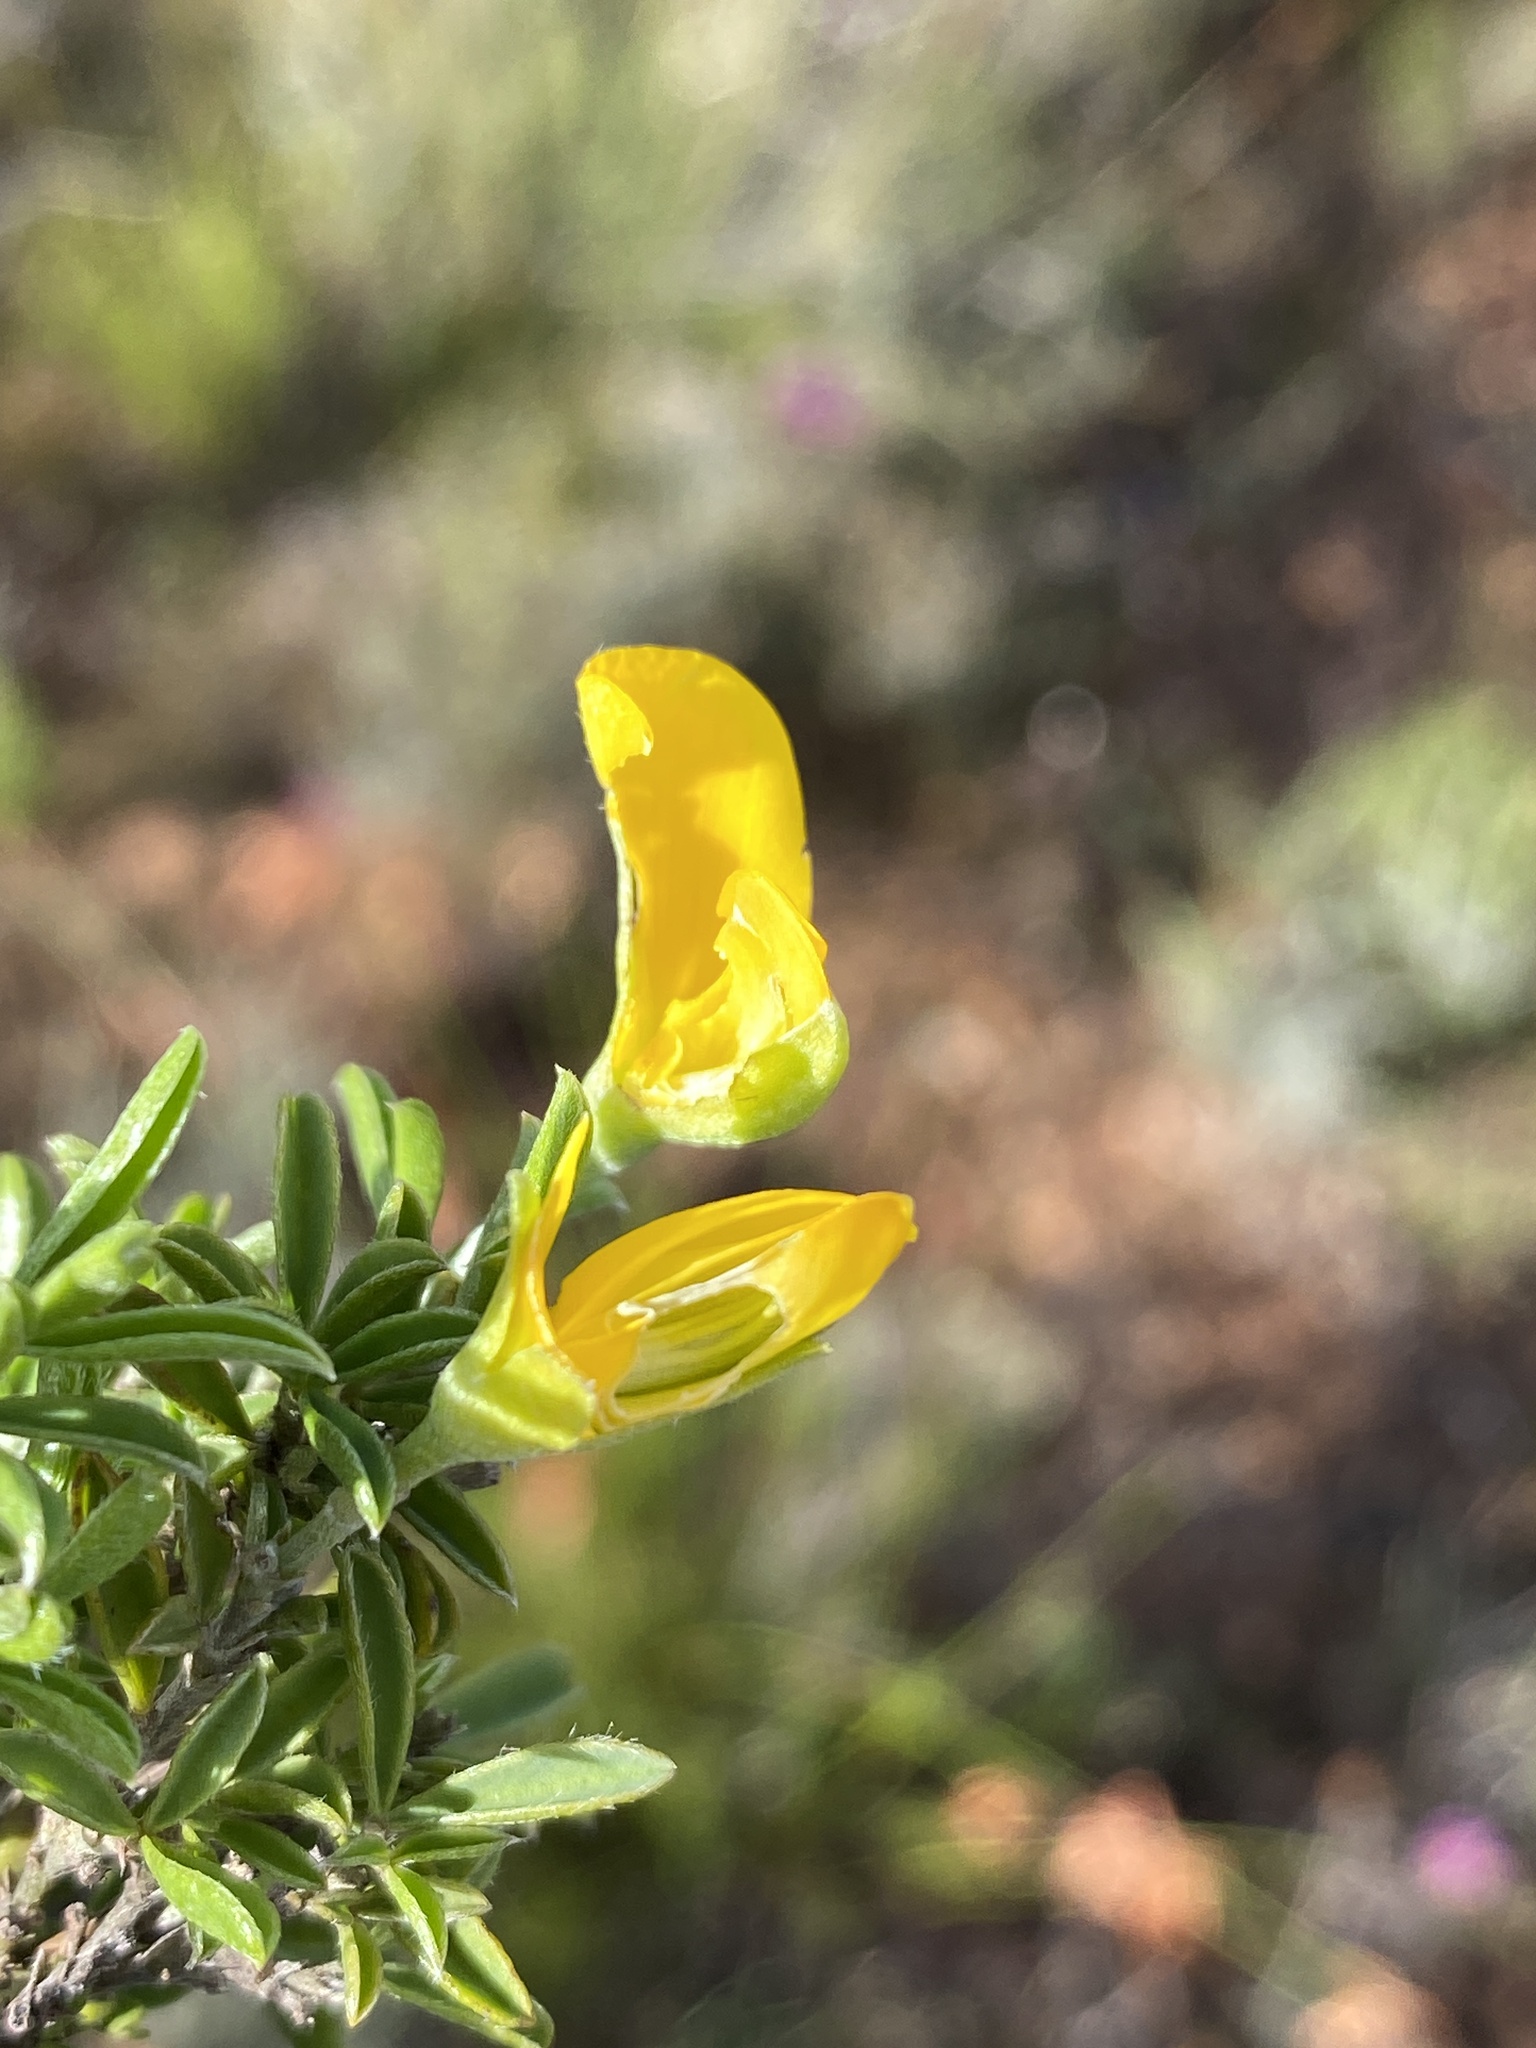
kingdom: Plantae
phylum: Tracheophyta
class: Magnoliopsida
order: Fabales
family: Fabaceae
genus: Argyrolobium
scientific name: Argyrolobium pachyphyllum
